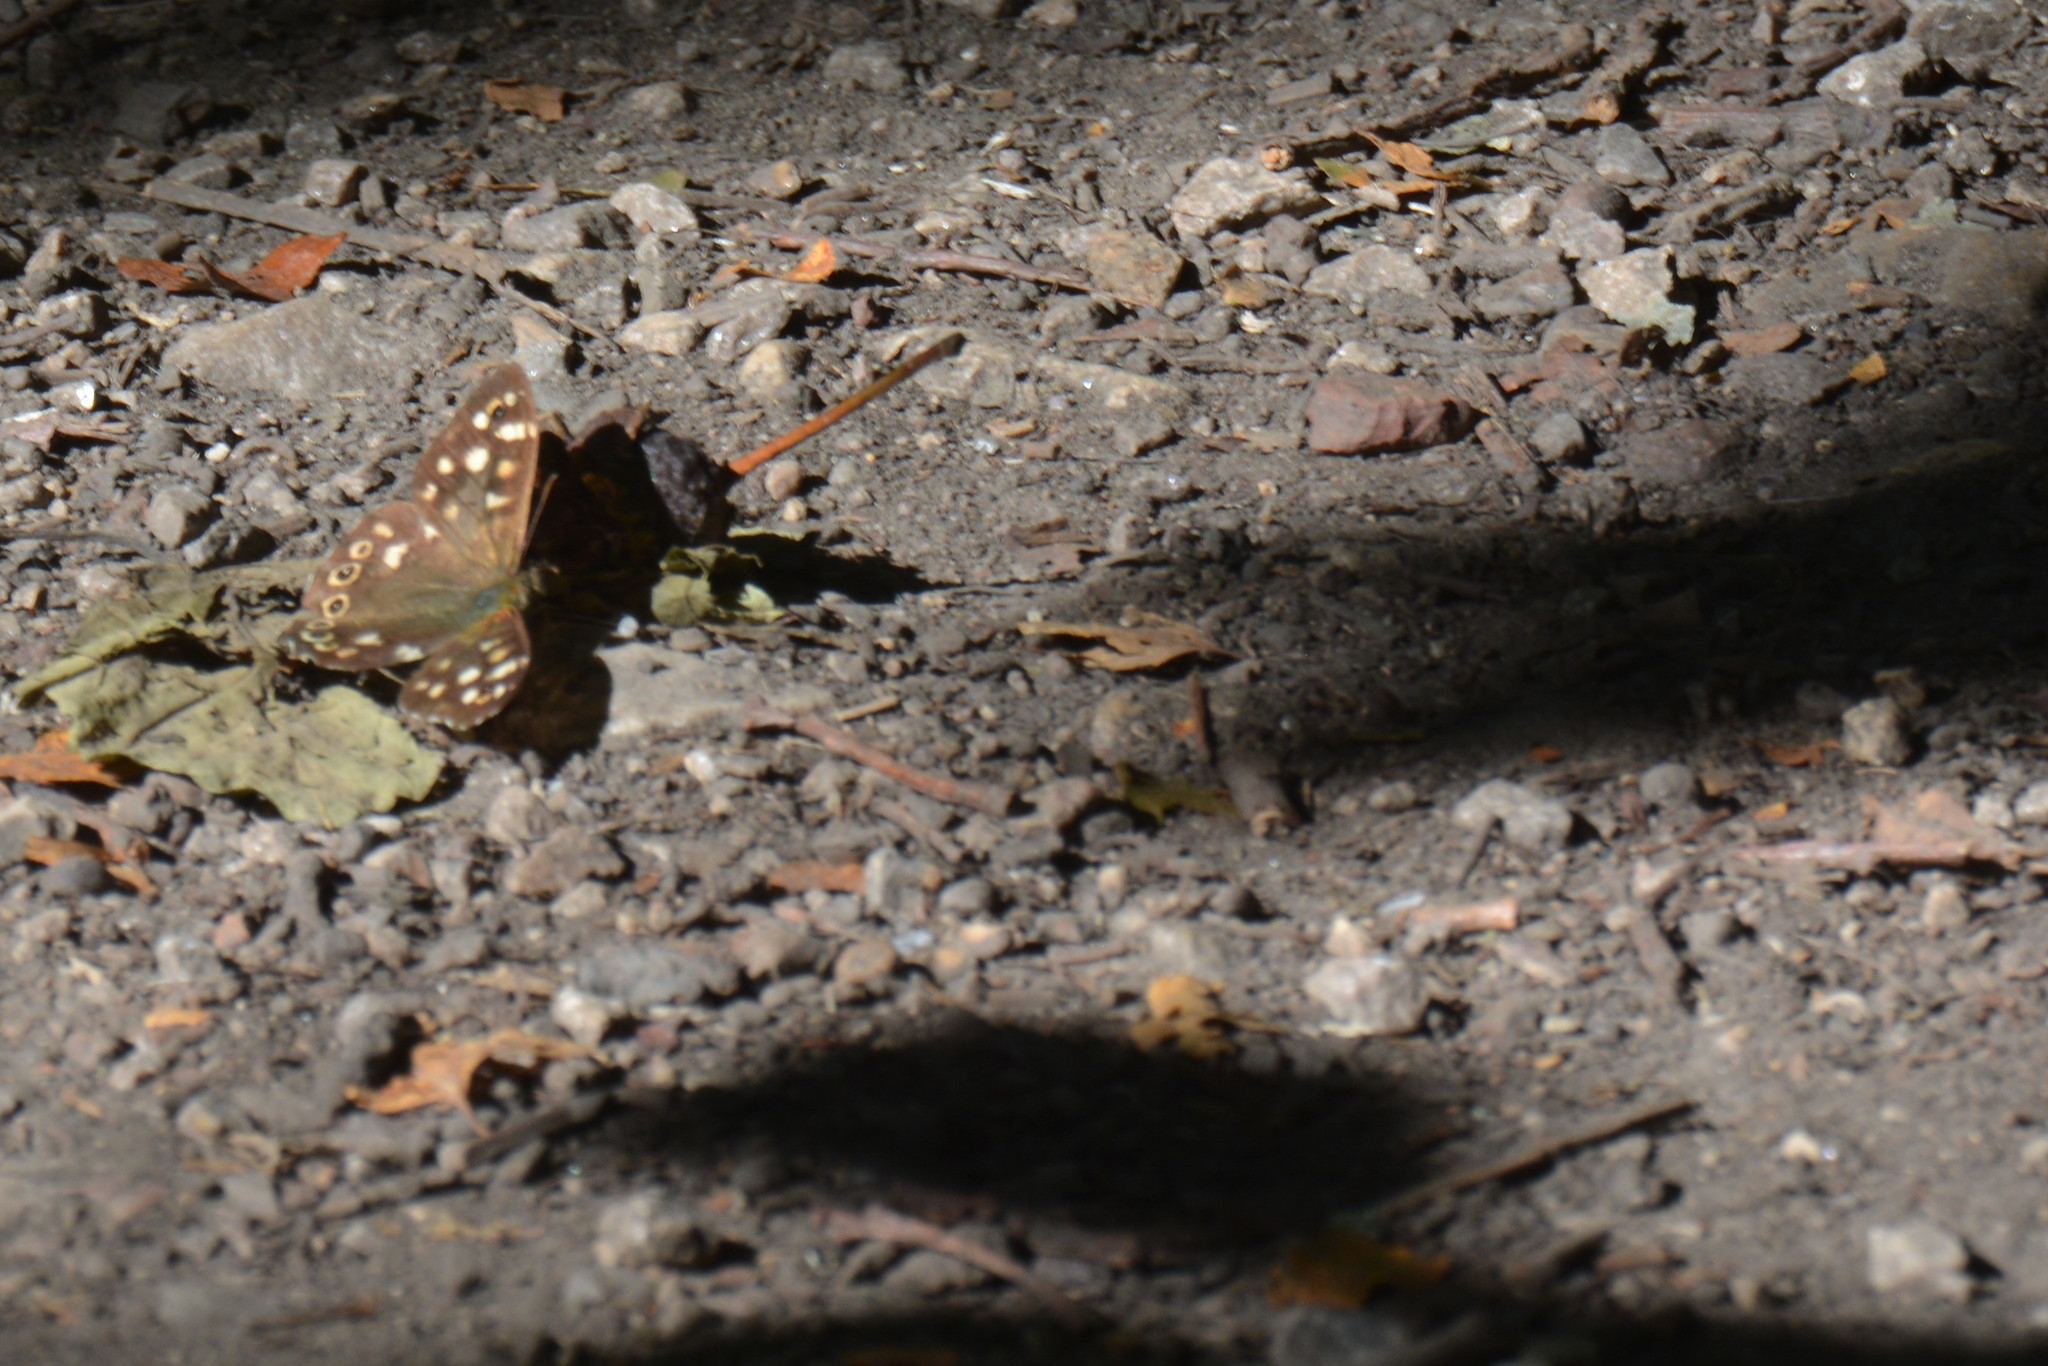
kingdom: Animalia
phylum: Arthropoda
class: Insecta
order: Lepidoptera
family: Nymphalidae
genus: Pararge
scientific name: Pararge aegeria
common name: Speckled wood
